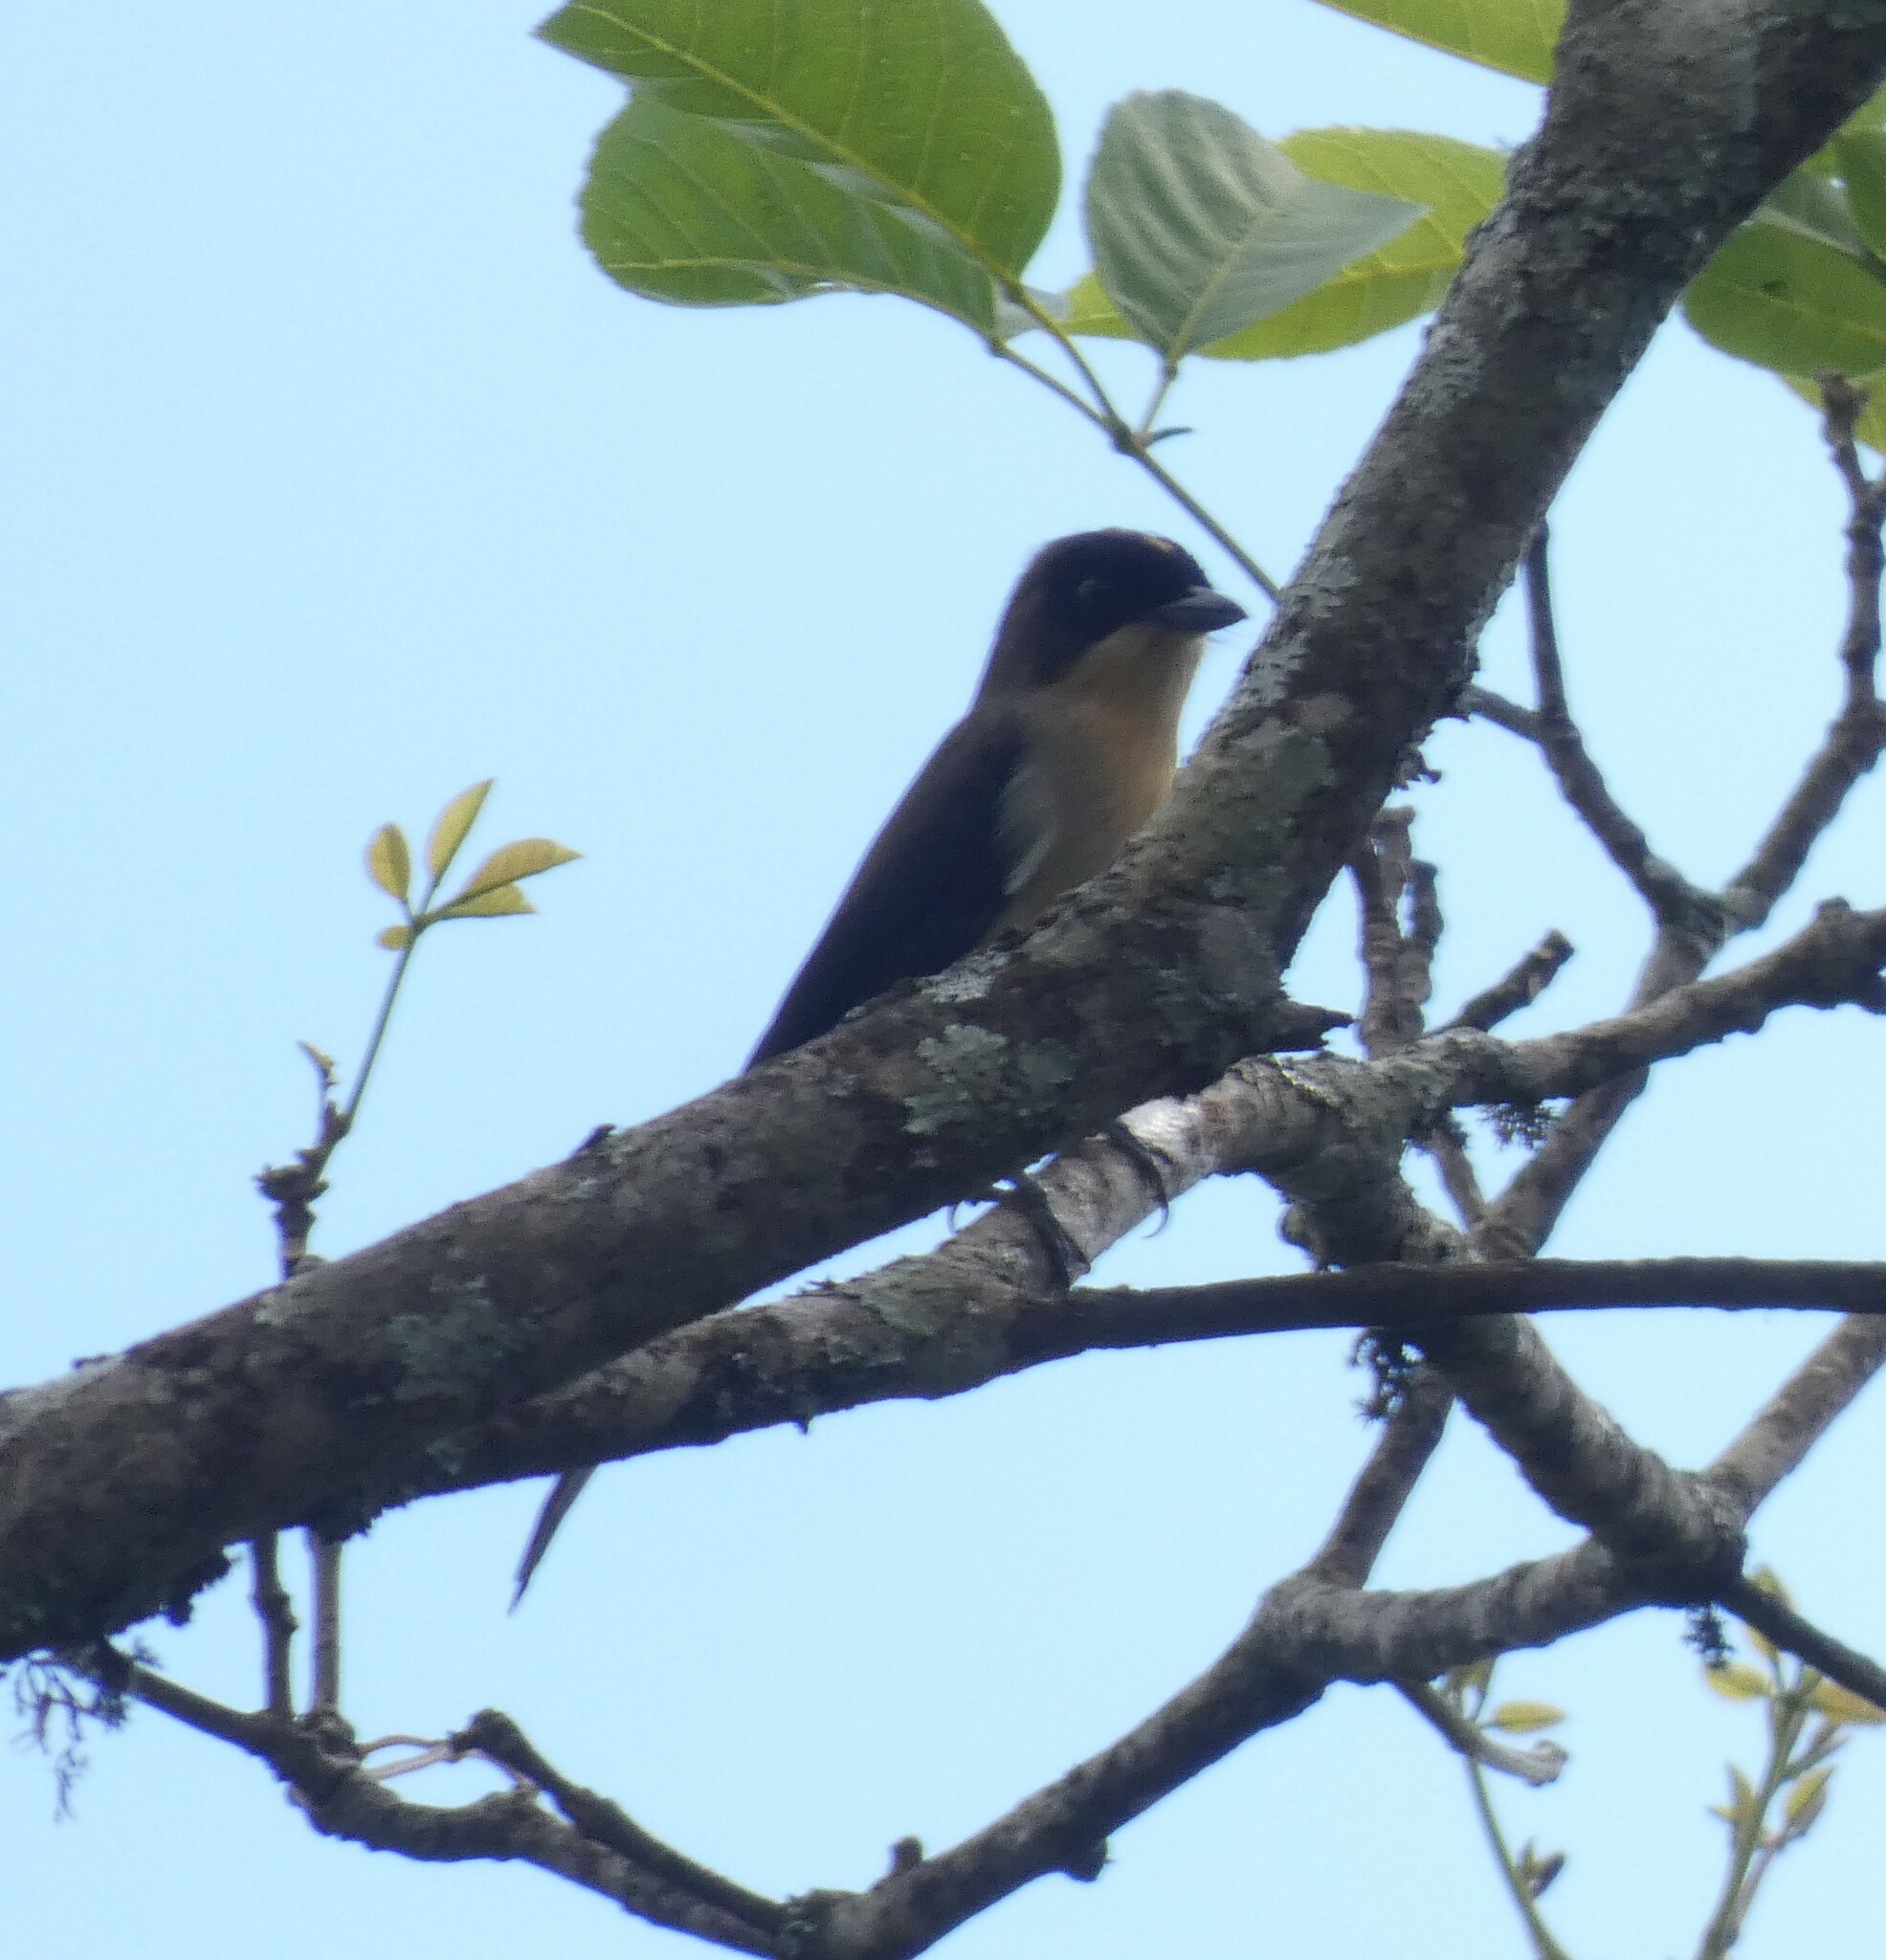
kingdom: Animalia
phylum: Chordata
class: Aves
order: Passeriformes
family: Thraupidae
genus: Trichothraupis
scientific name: Trichothraupis melanops
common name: Black-goggled tanager
